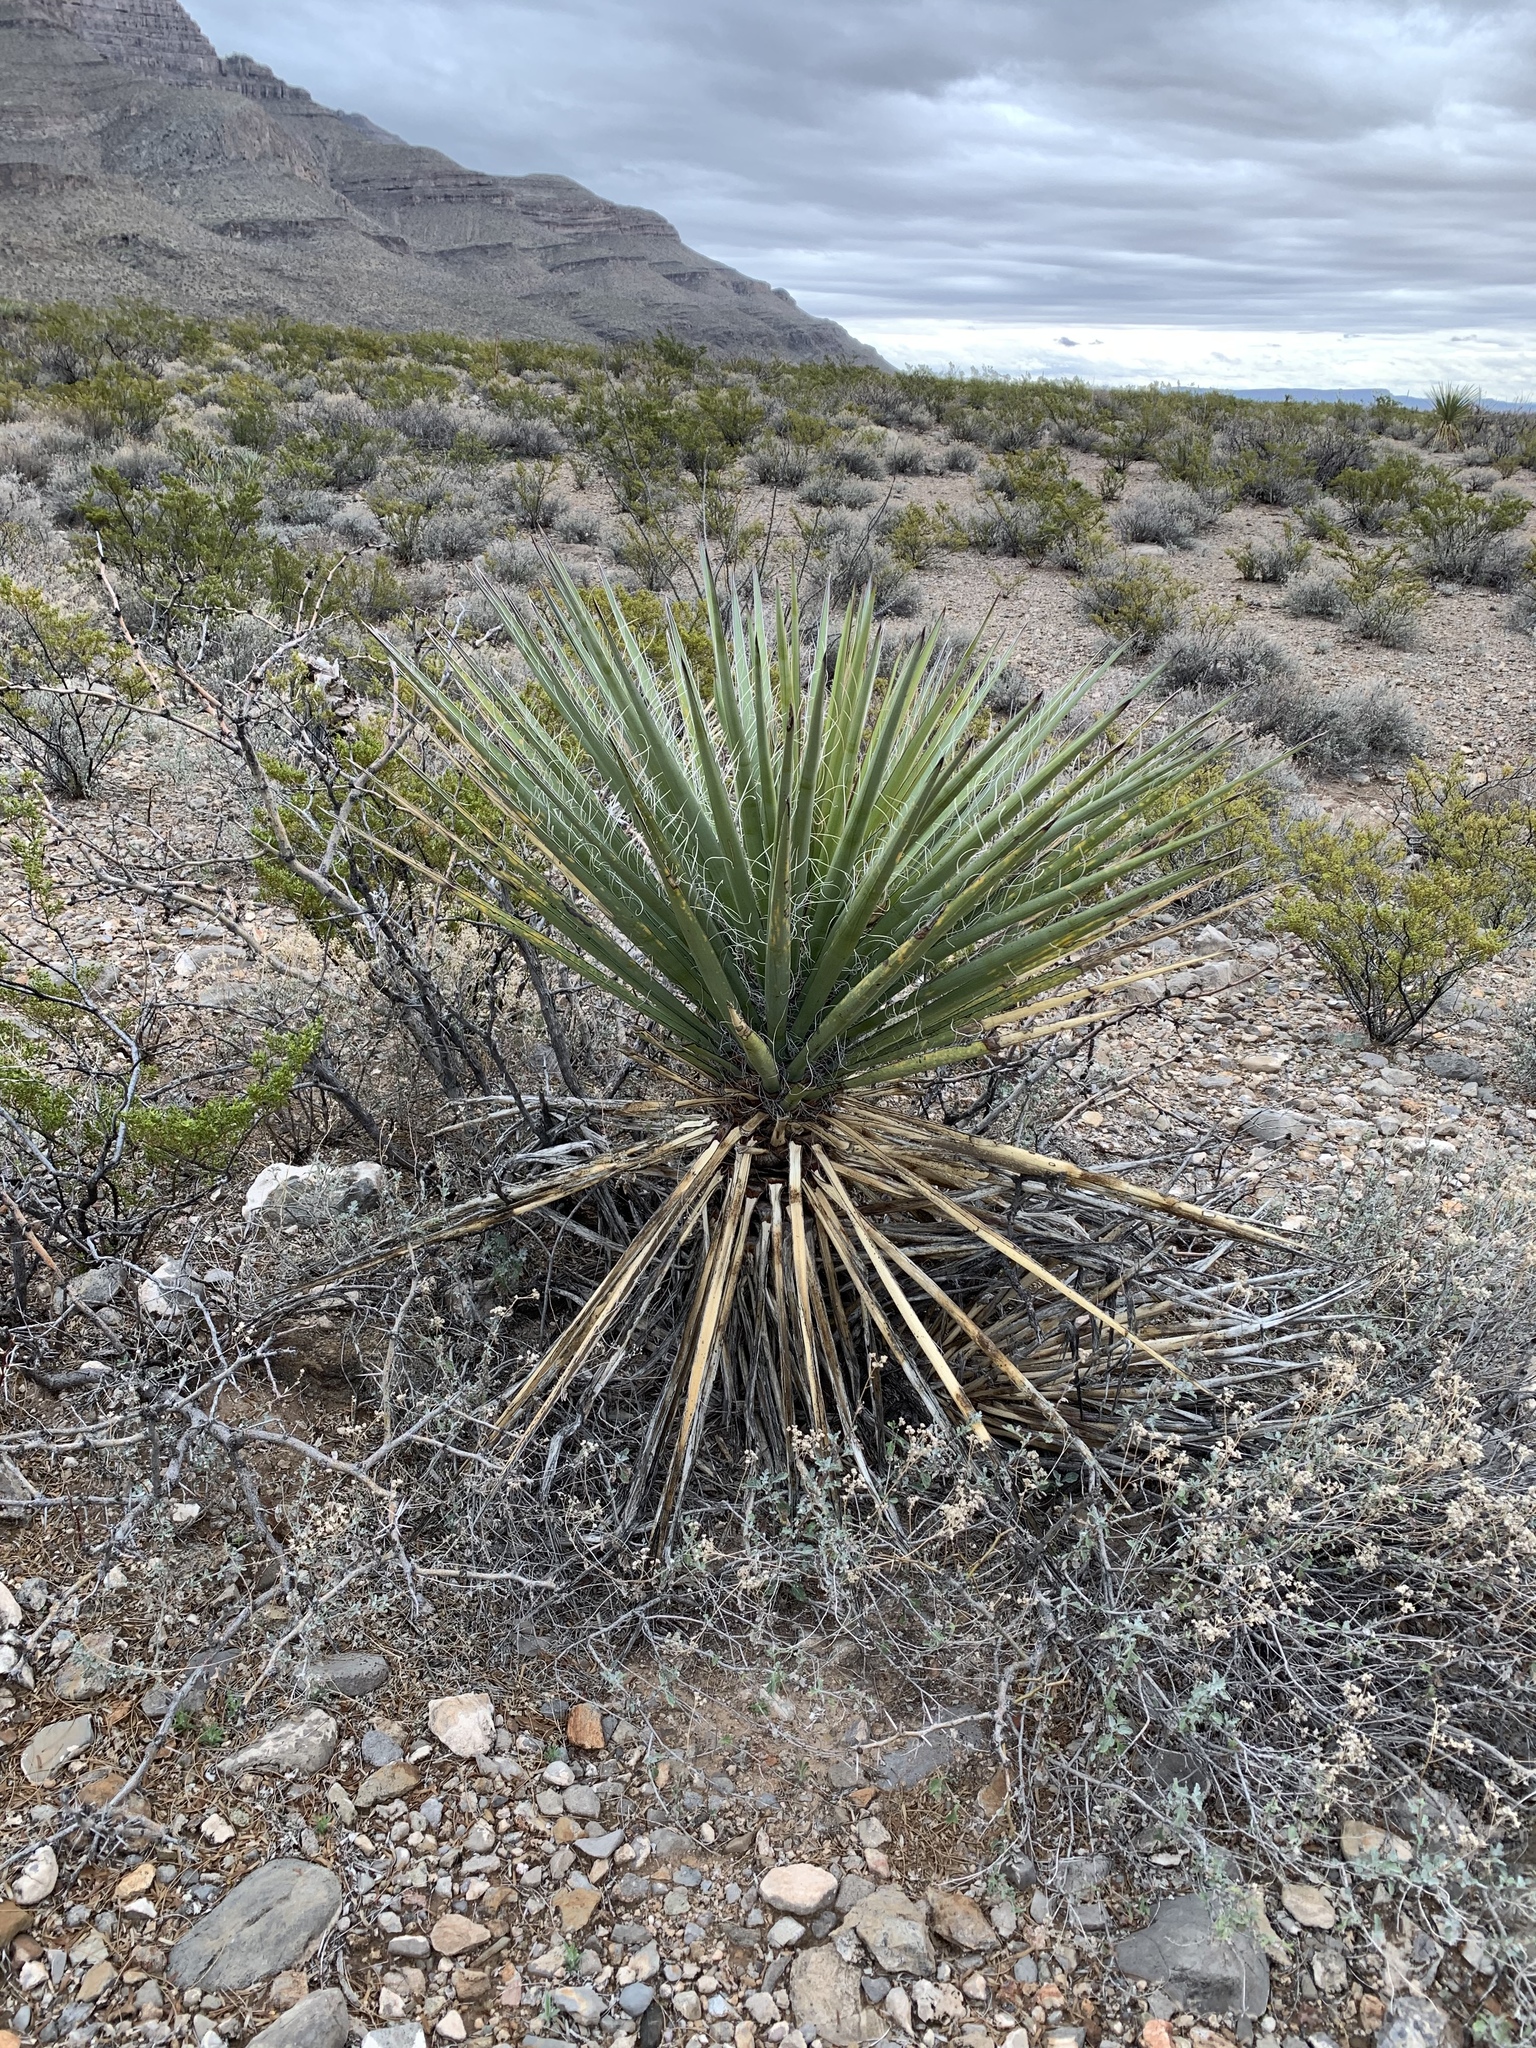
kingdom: Plantae
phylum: Tracheophyta
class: Liliopsida
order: Asparagales
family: Asparagaceae
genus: Yucca
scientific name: Yucca treculiana
